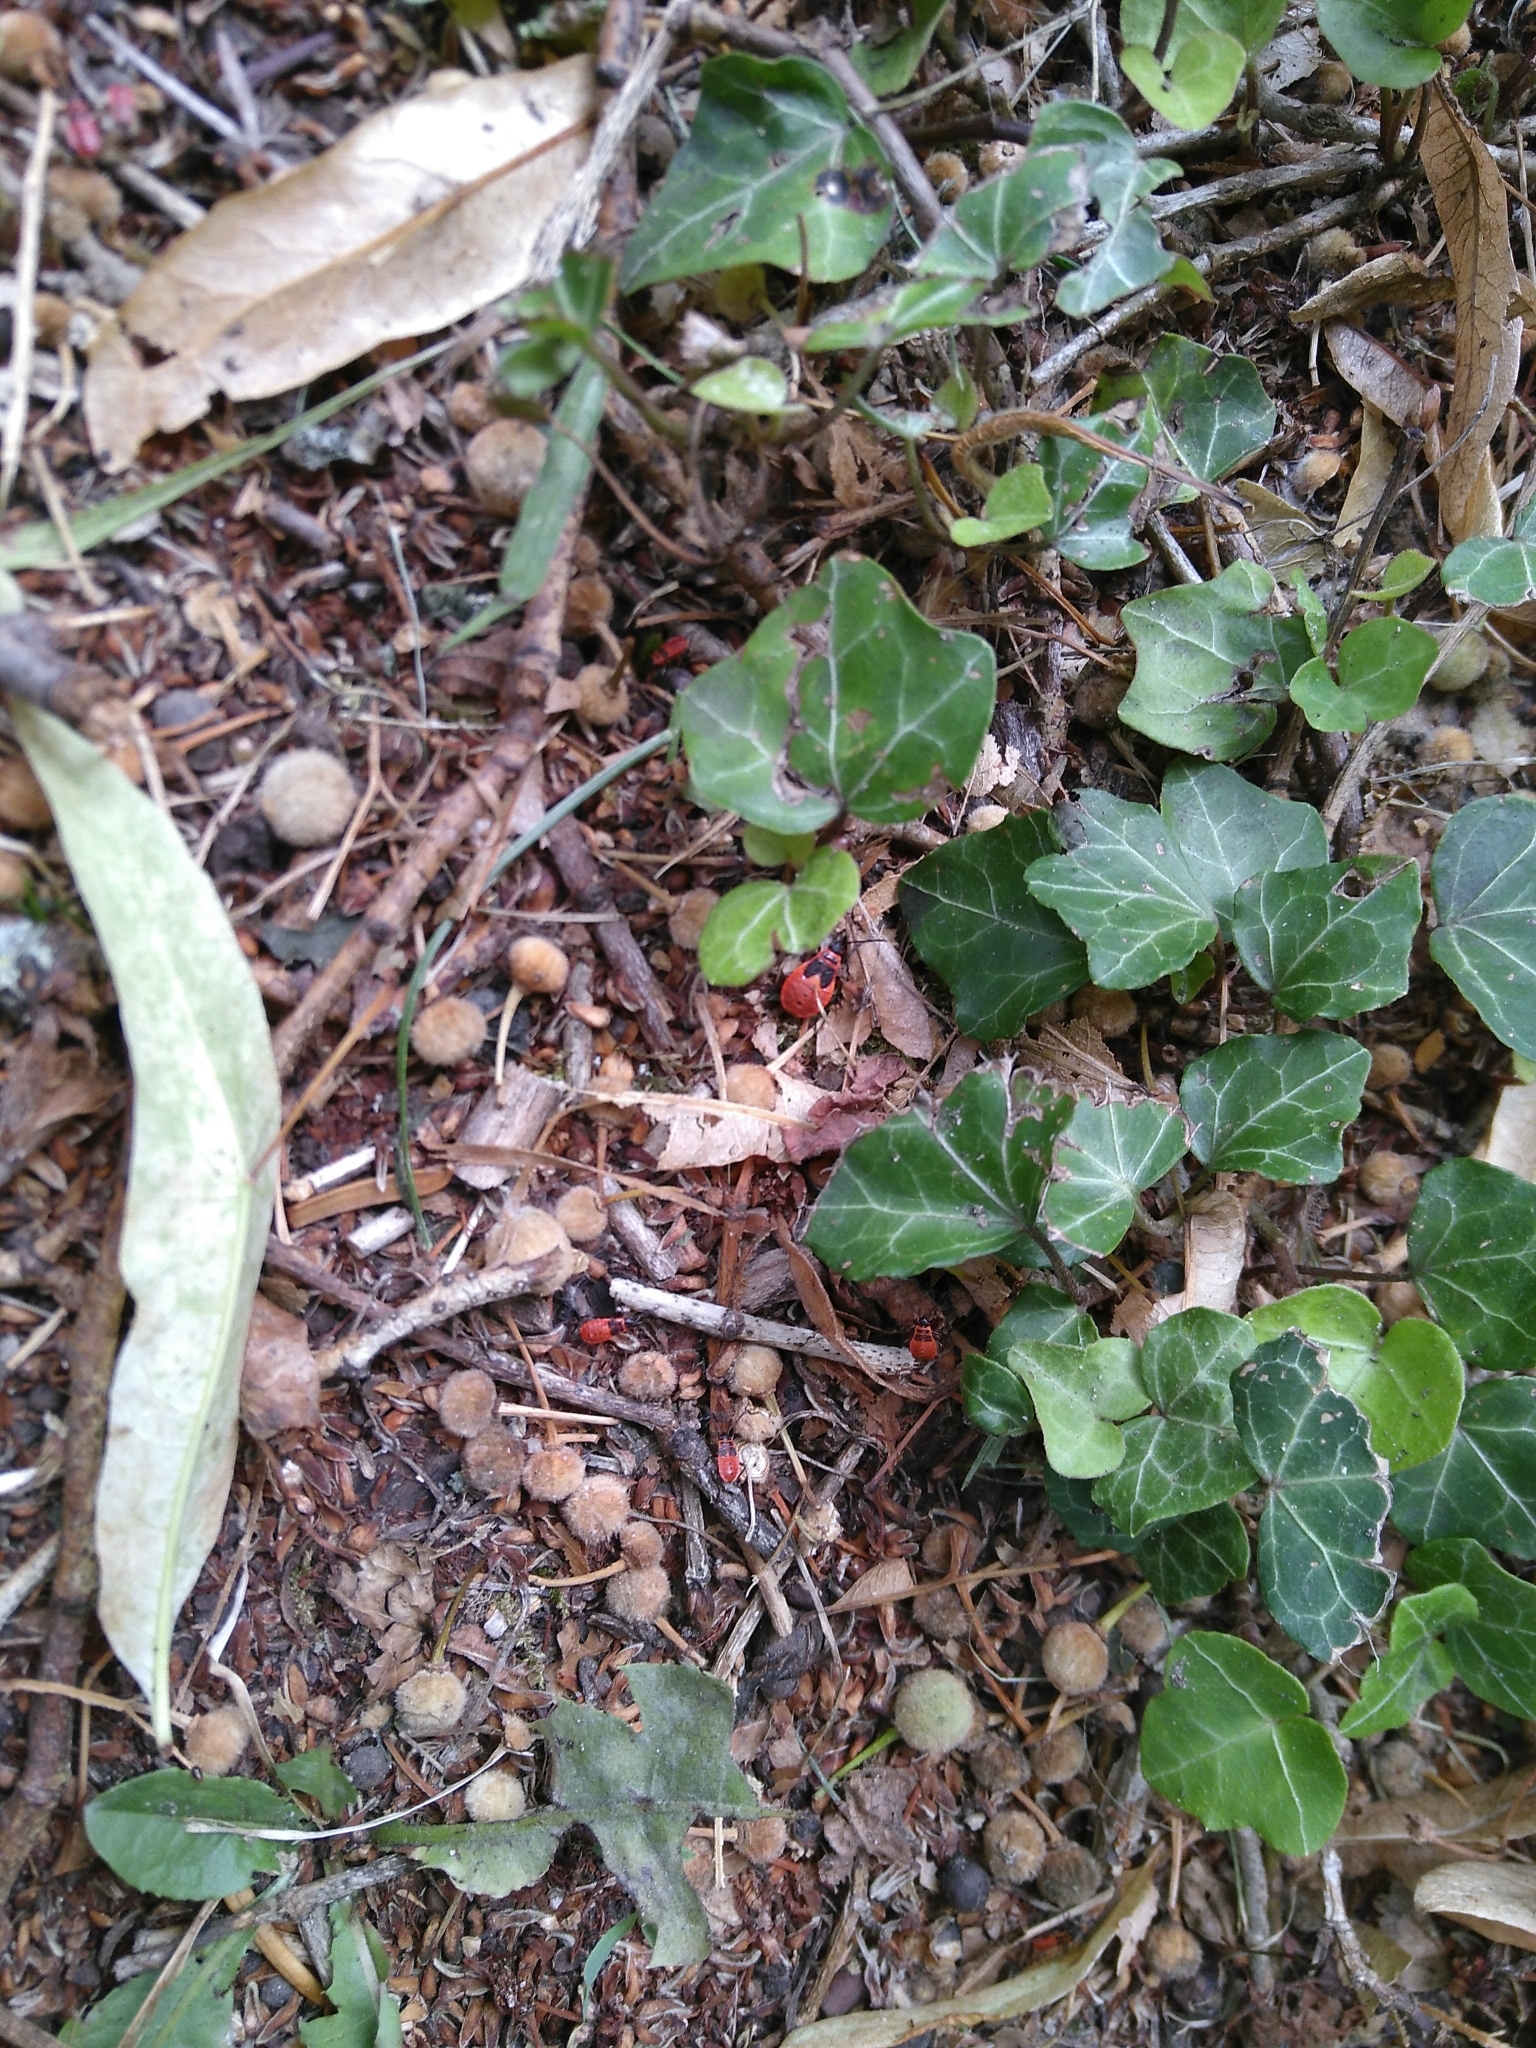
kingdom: Animalia
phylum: Arthropoda
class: Insecta
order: Hemiptera
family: Pyrrhocoridae
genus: Pyrrhocoris
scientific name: Pyrrhocoris apterus
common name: Firebug
